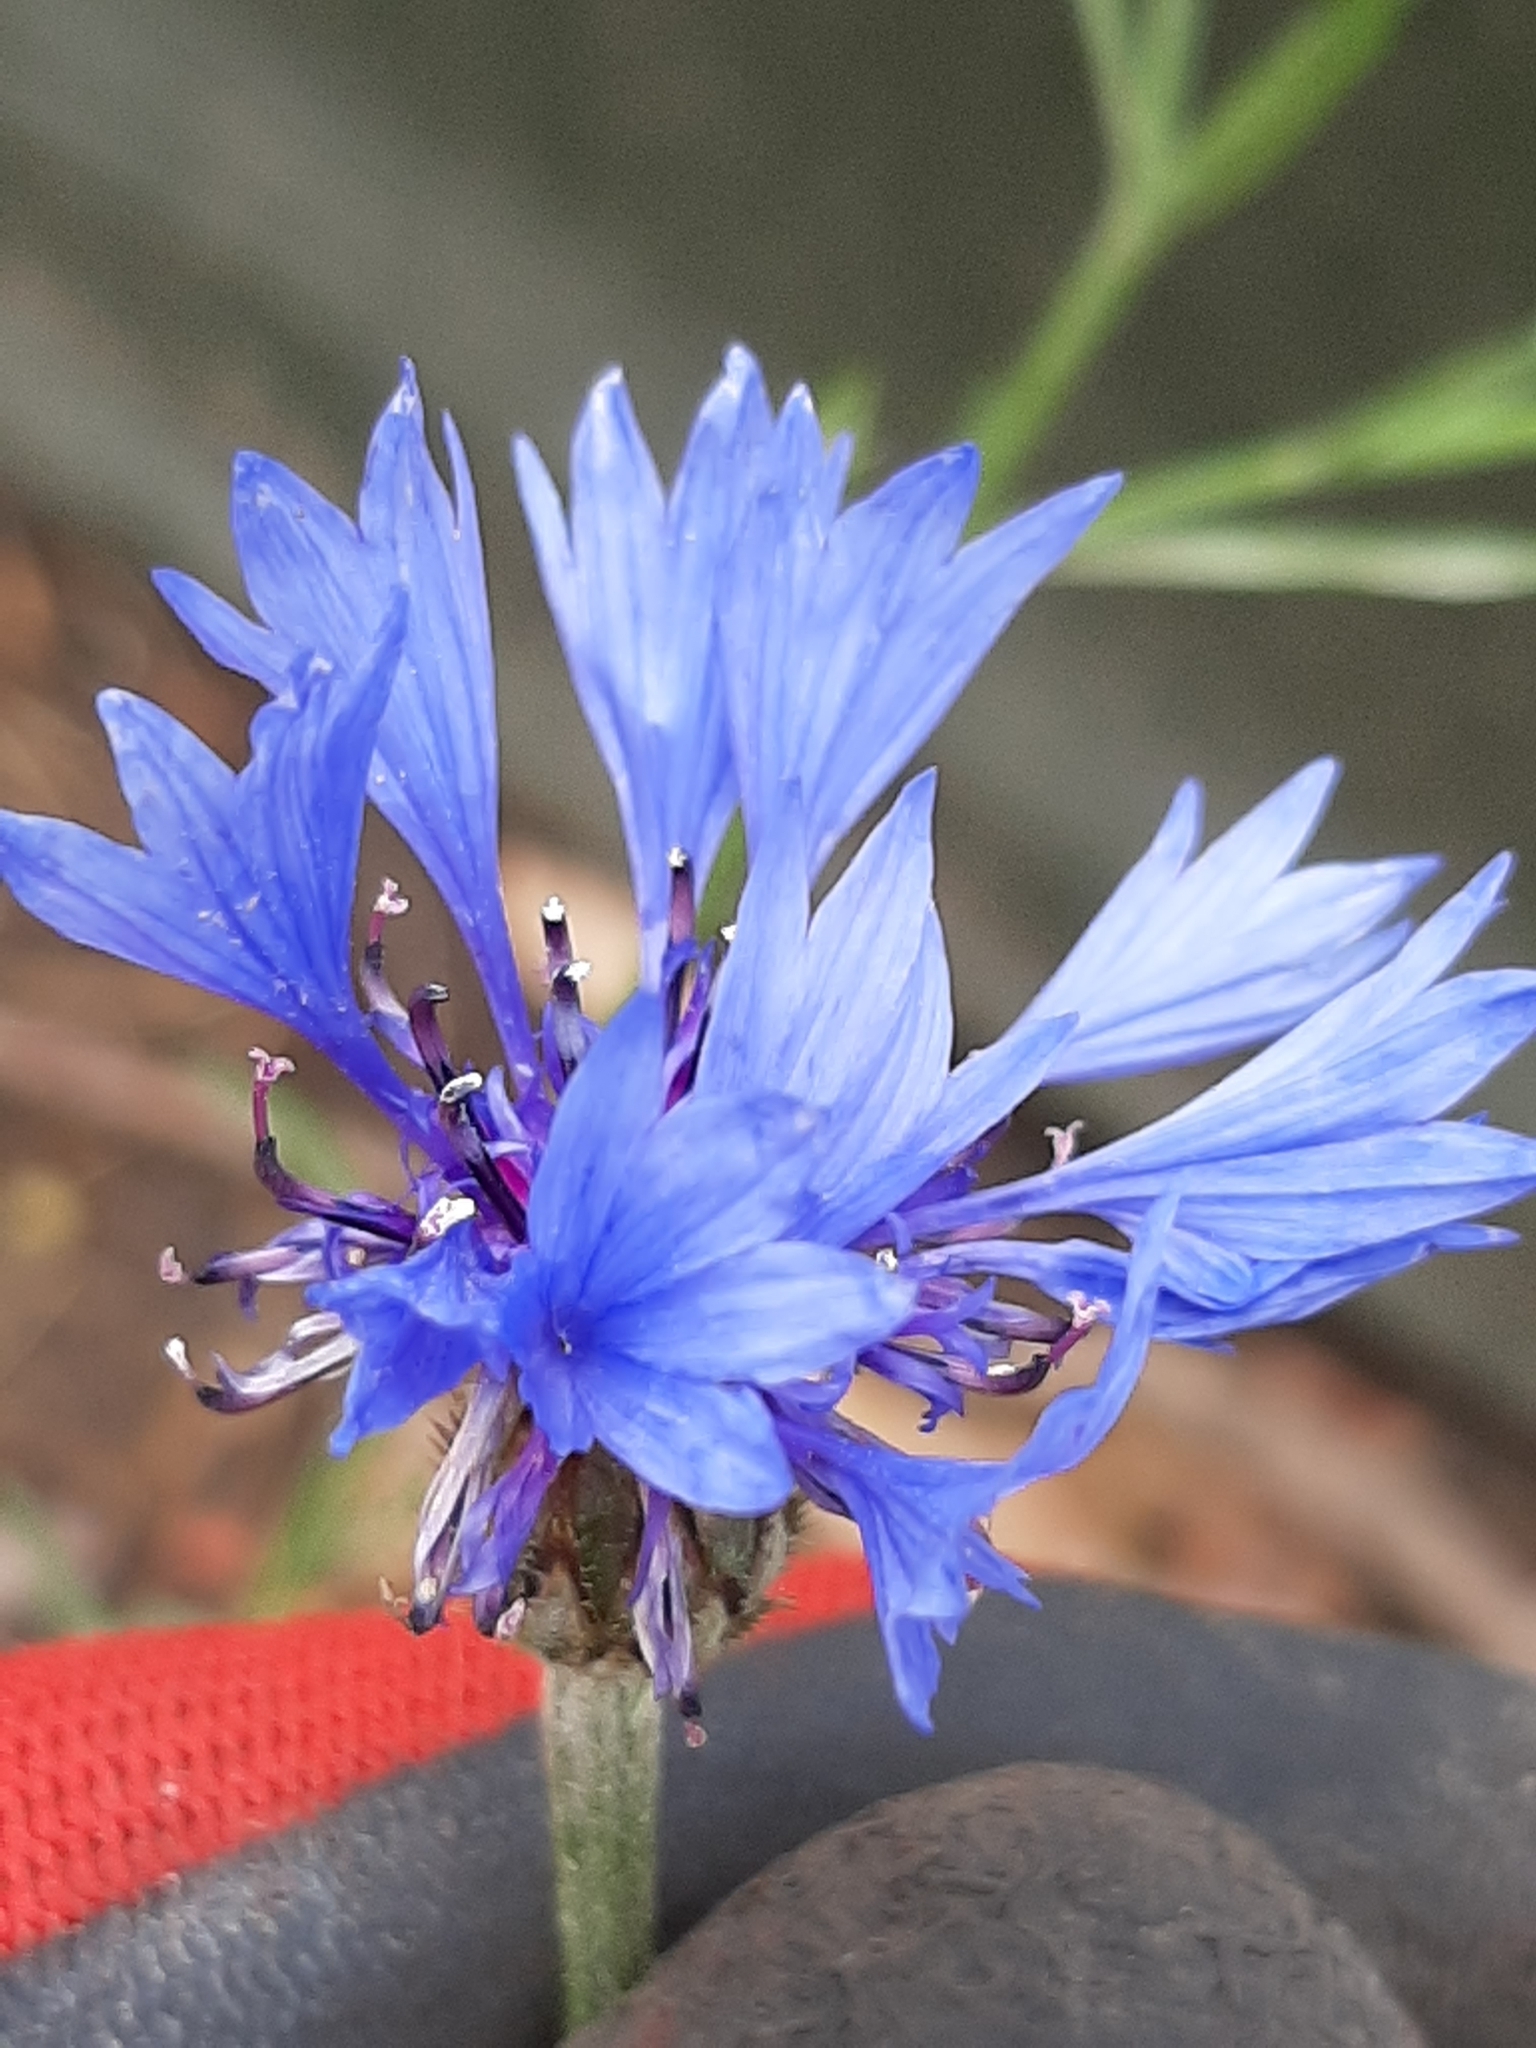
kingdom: Plantae
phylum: Tracheophyta
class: Magnoliopsida
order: Asterales
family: Asteraceae
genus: Centaurea
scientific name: Centaurea cyanus
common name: Cornflower
